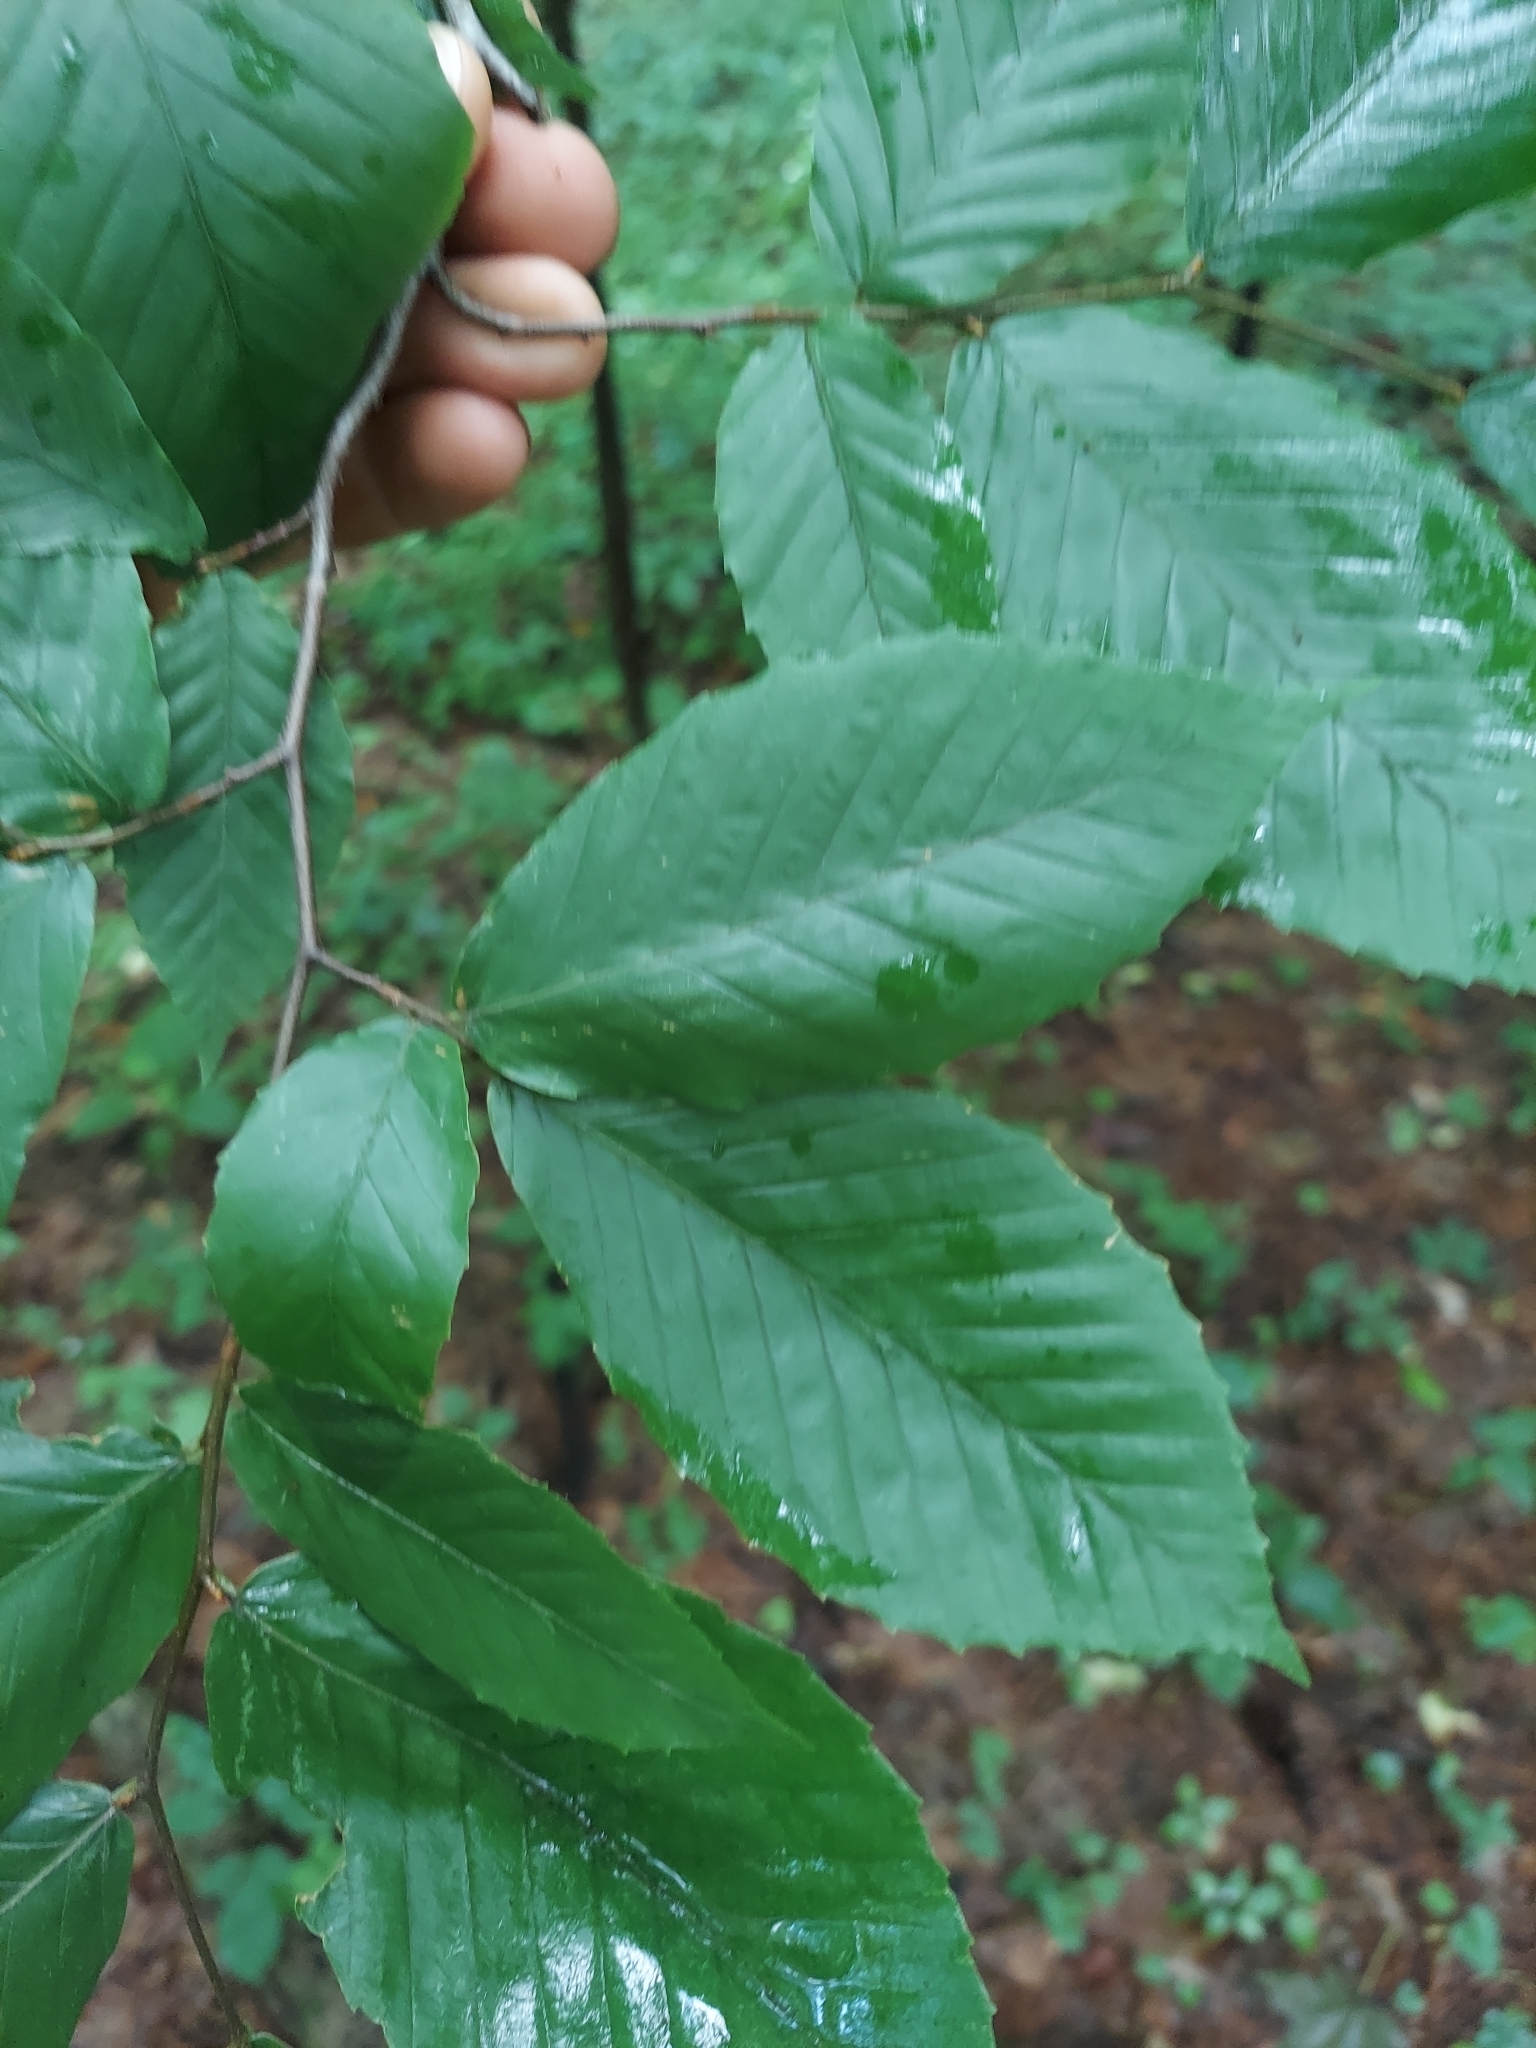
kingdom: Plantae
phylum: Tracheophyta
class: Magnoliopsida
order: Fagales
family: Fagaceae
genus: Fagus
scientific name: Fagus grandifolia
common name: American beech
